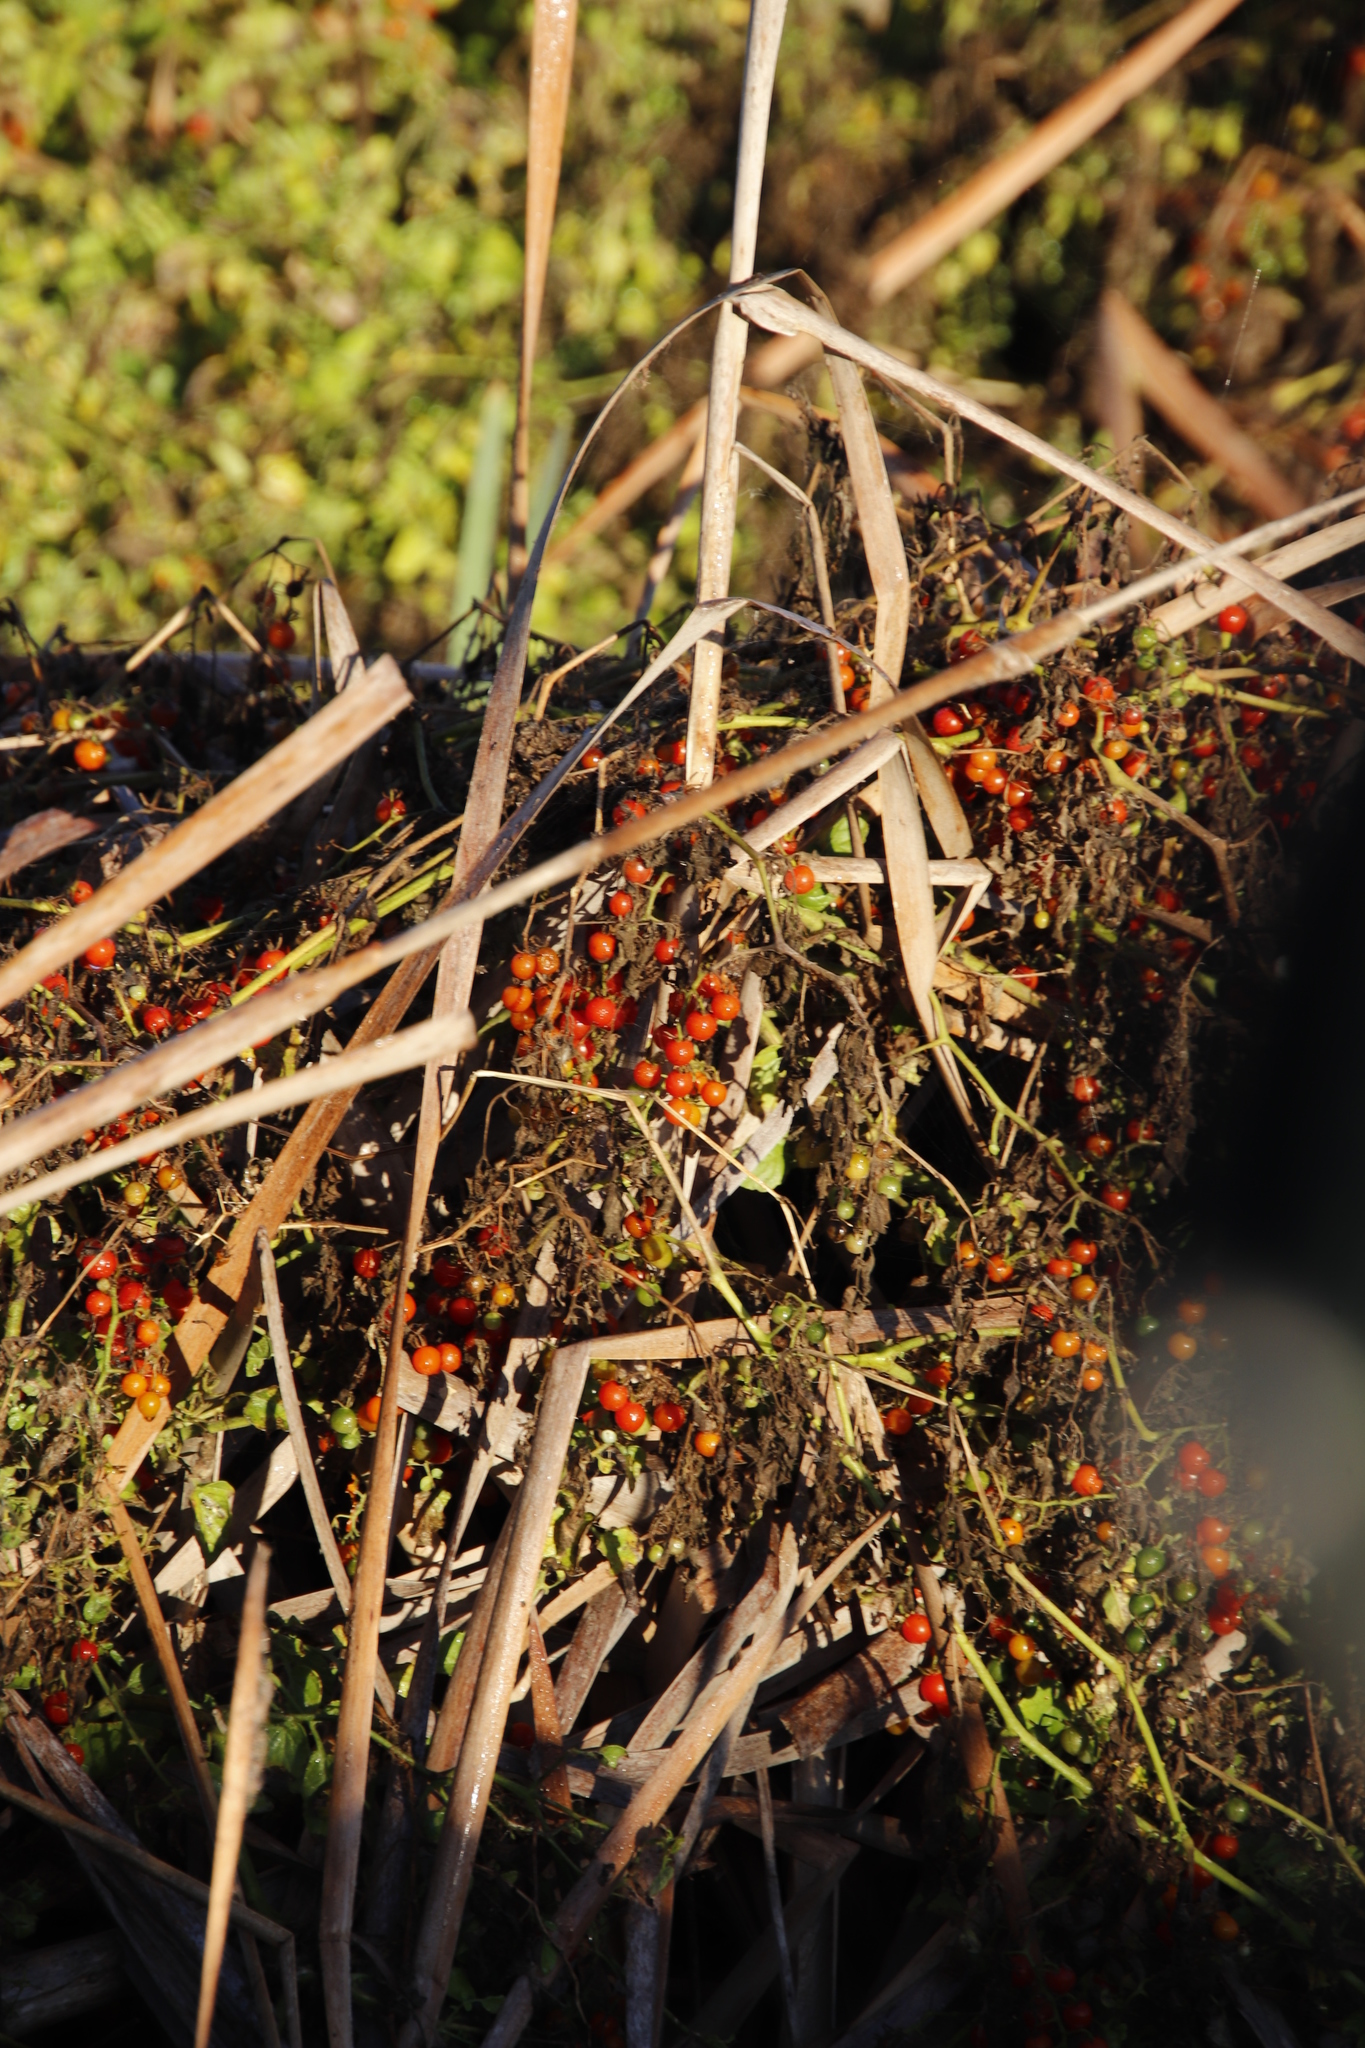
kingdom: Plantae
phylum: Tracheophyta
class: Magnoliopsida
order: Solanales
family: Solanaceae
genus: Solanum
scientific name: Solanum lycopersicum
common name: Garden tomato
